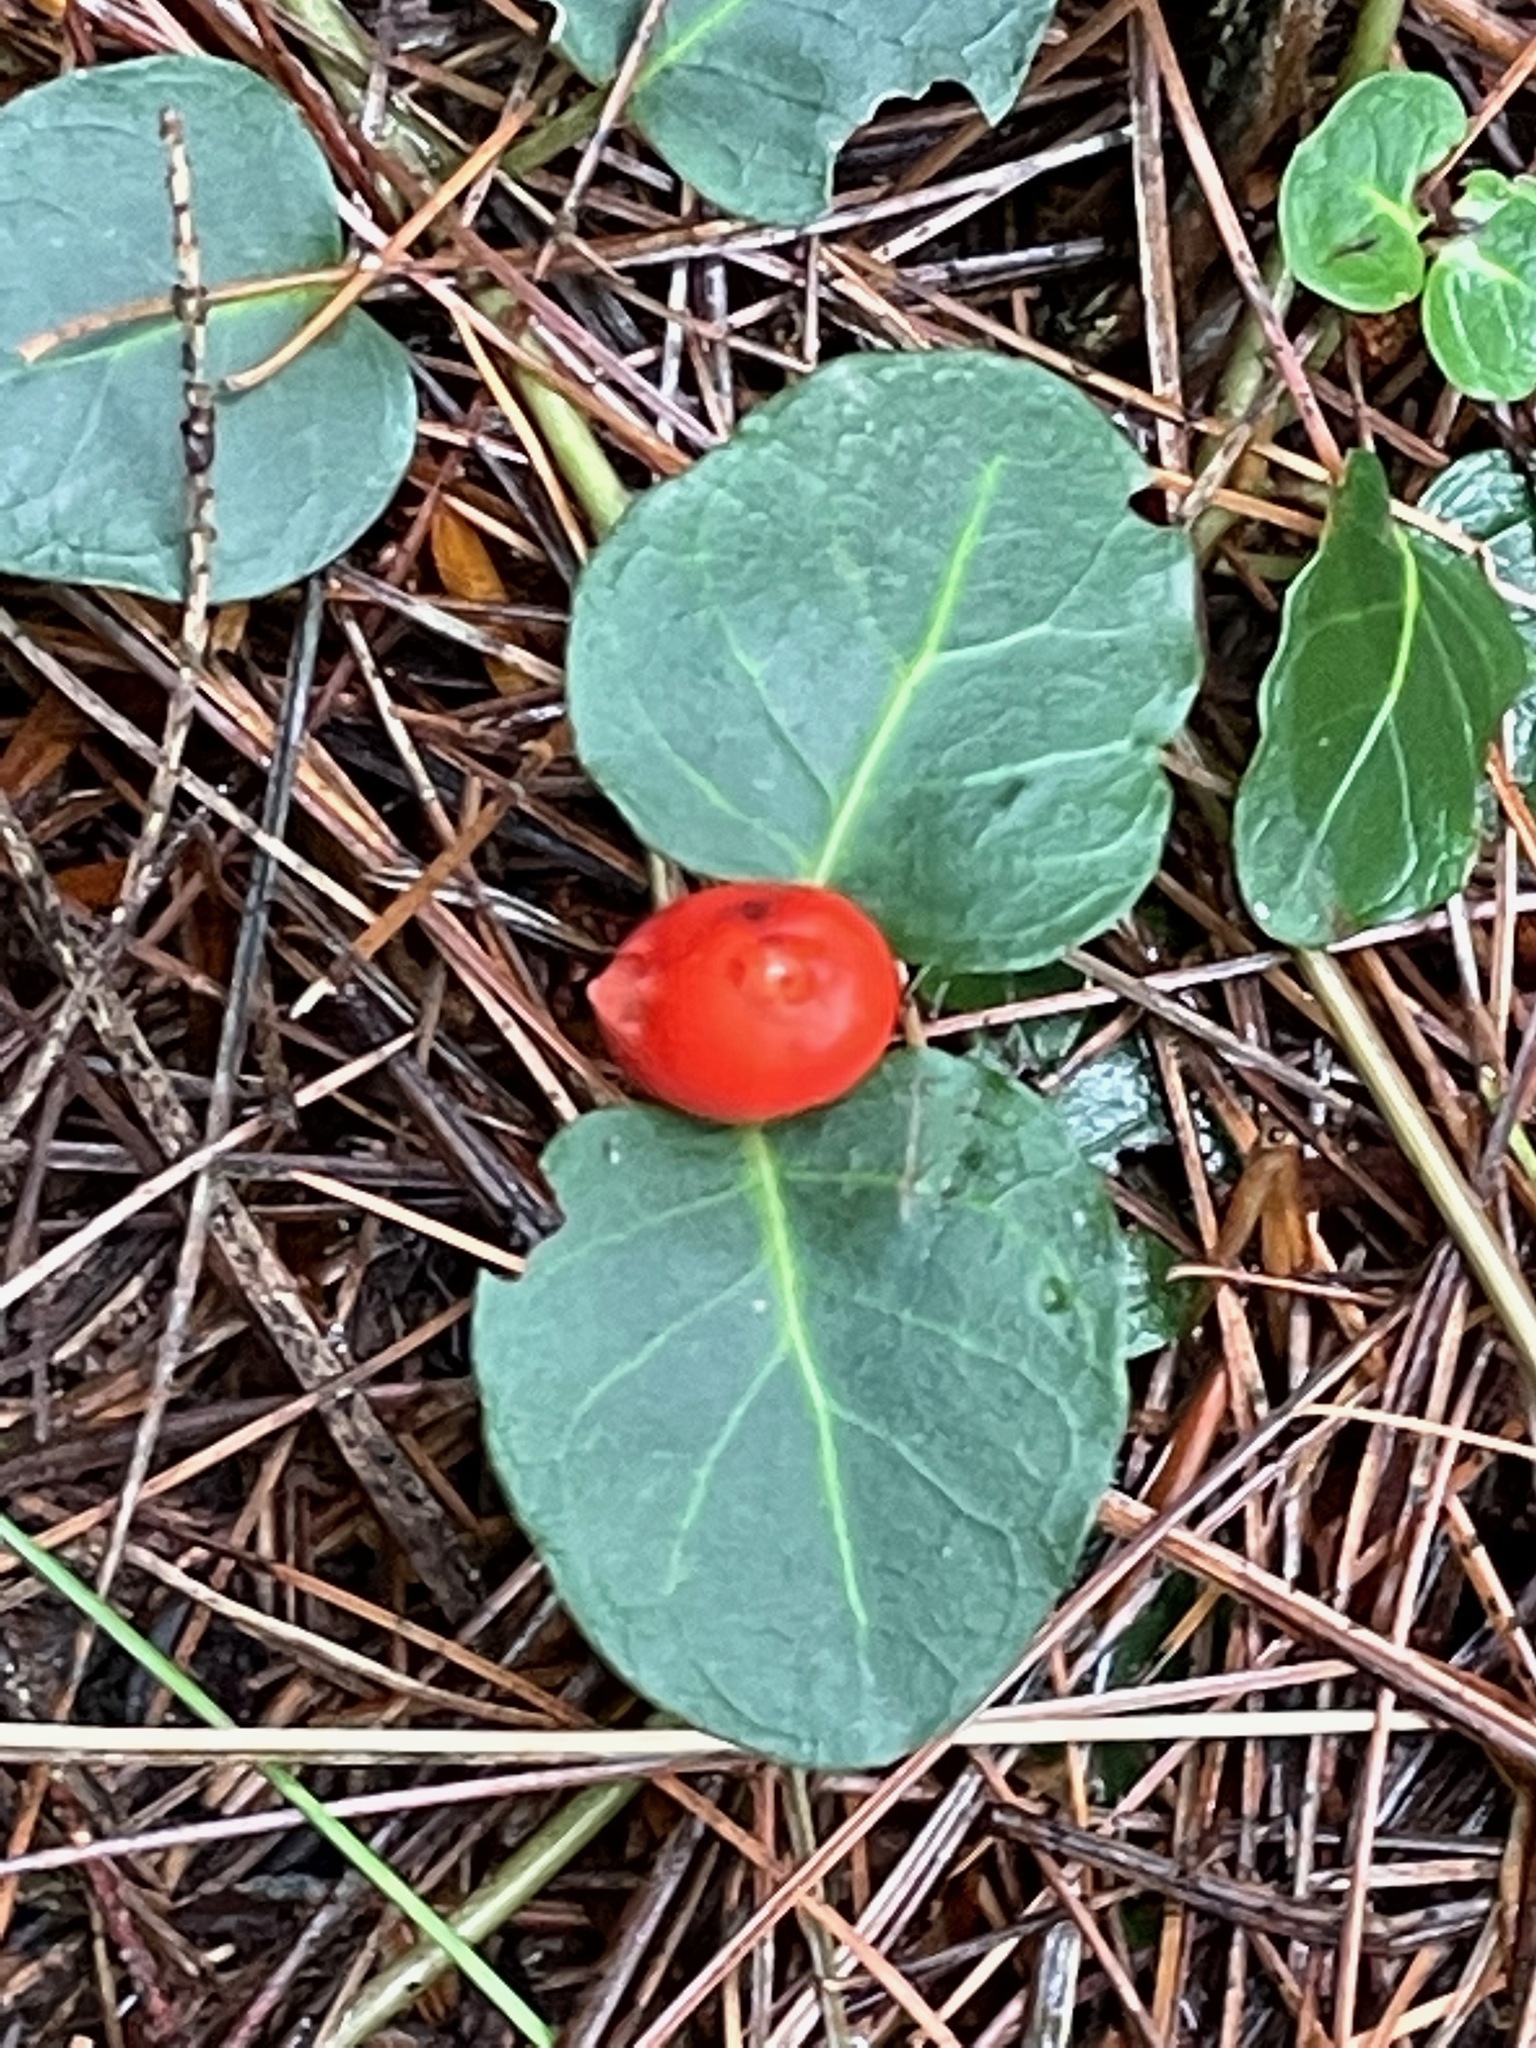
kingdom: Plantae
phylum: Tracheophyta
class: Magnoliopsida
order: Gentianales
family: Rubiaceae
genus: Mitchella
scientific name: Mitchella repens
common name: Partridge-berry
